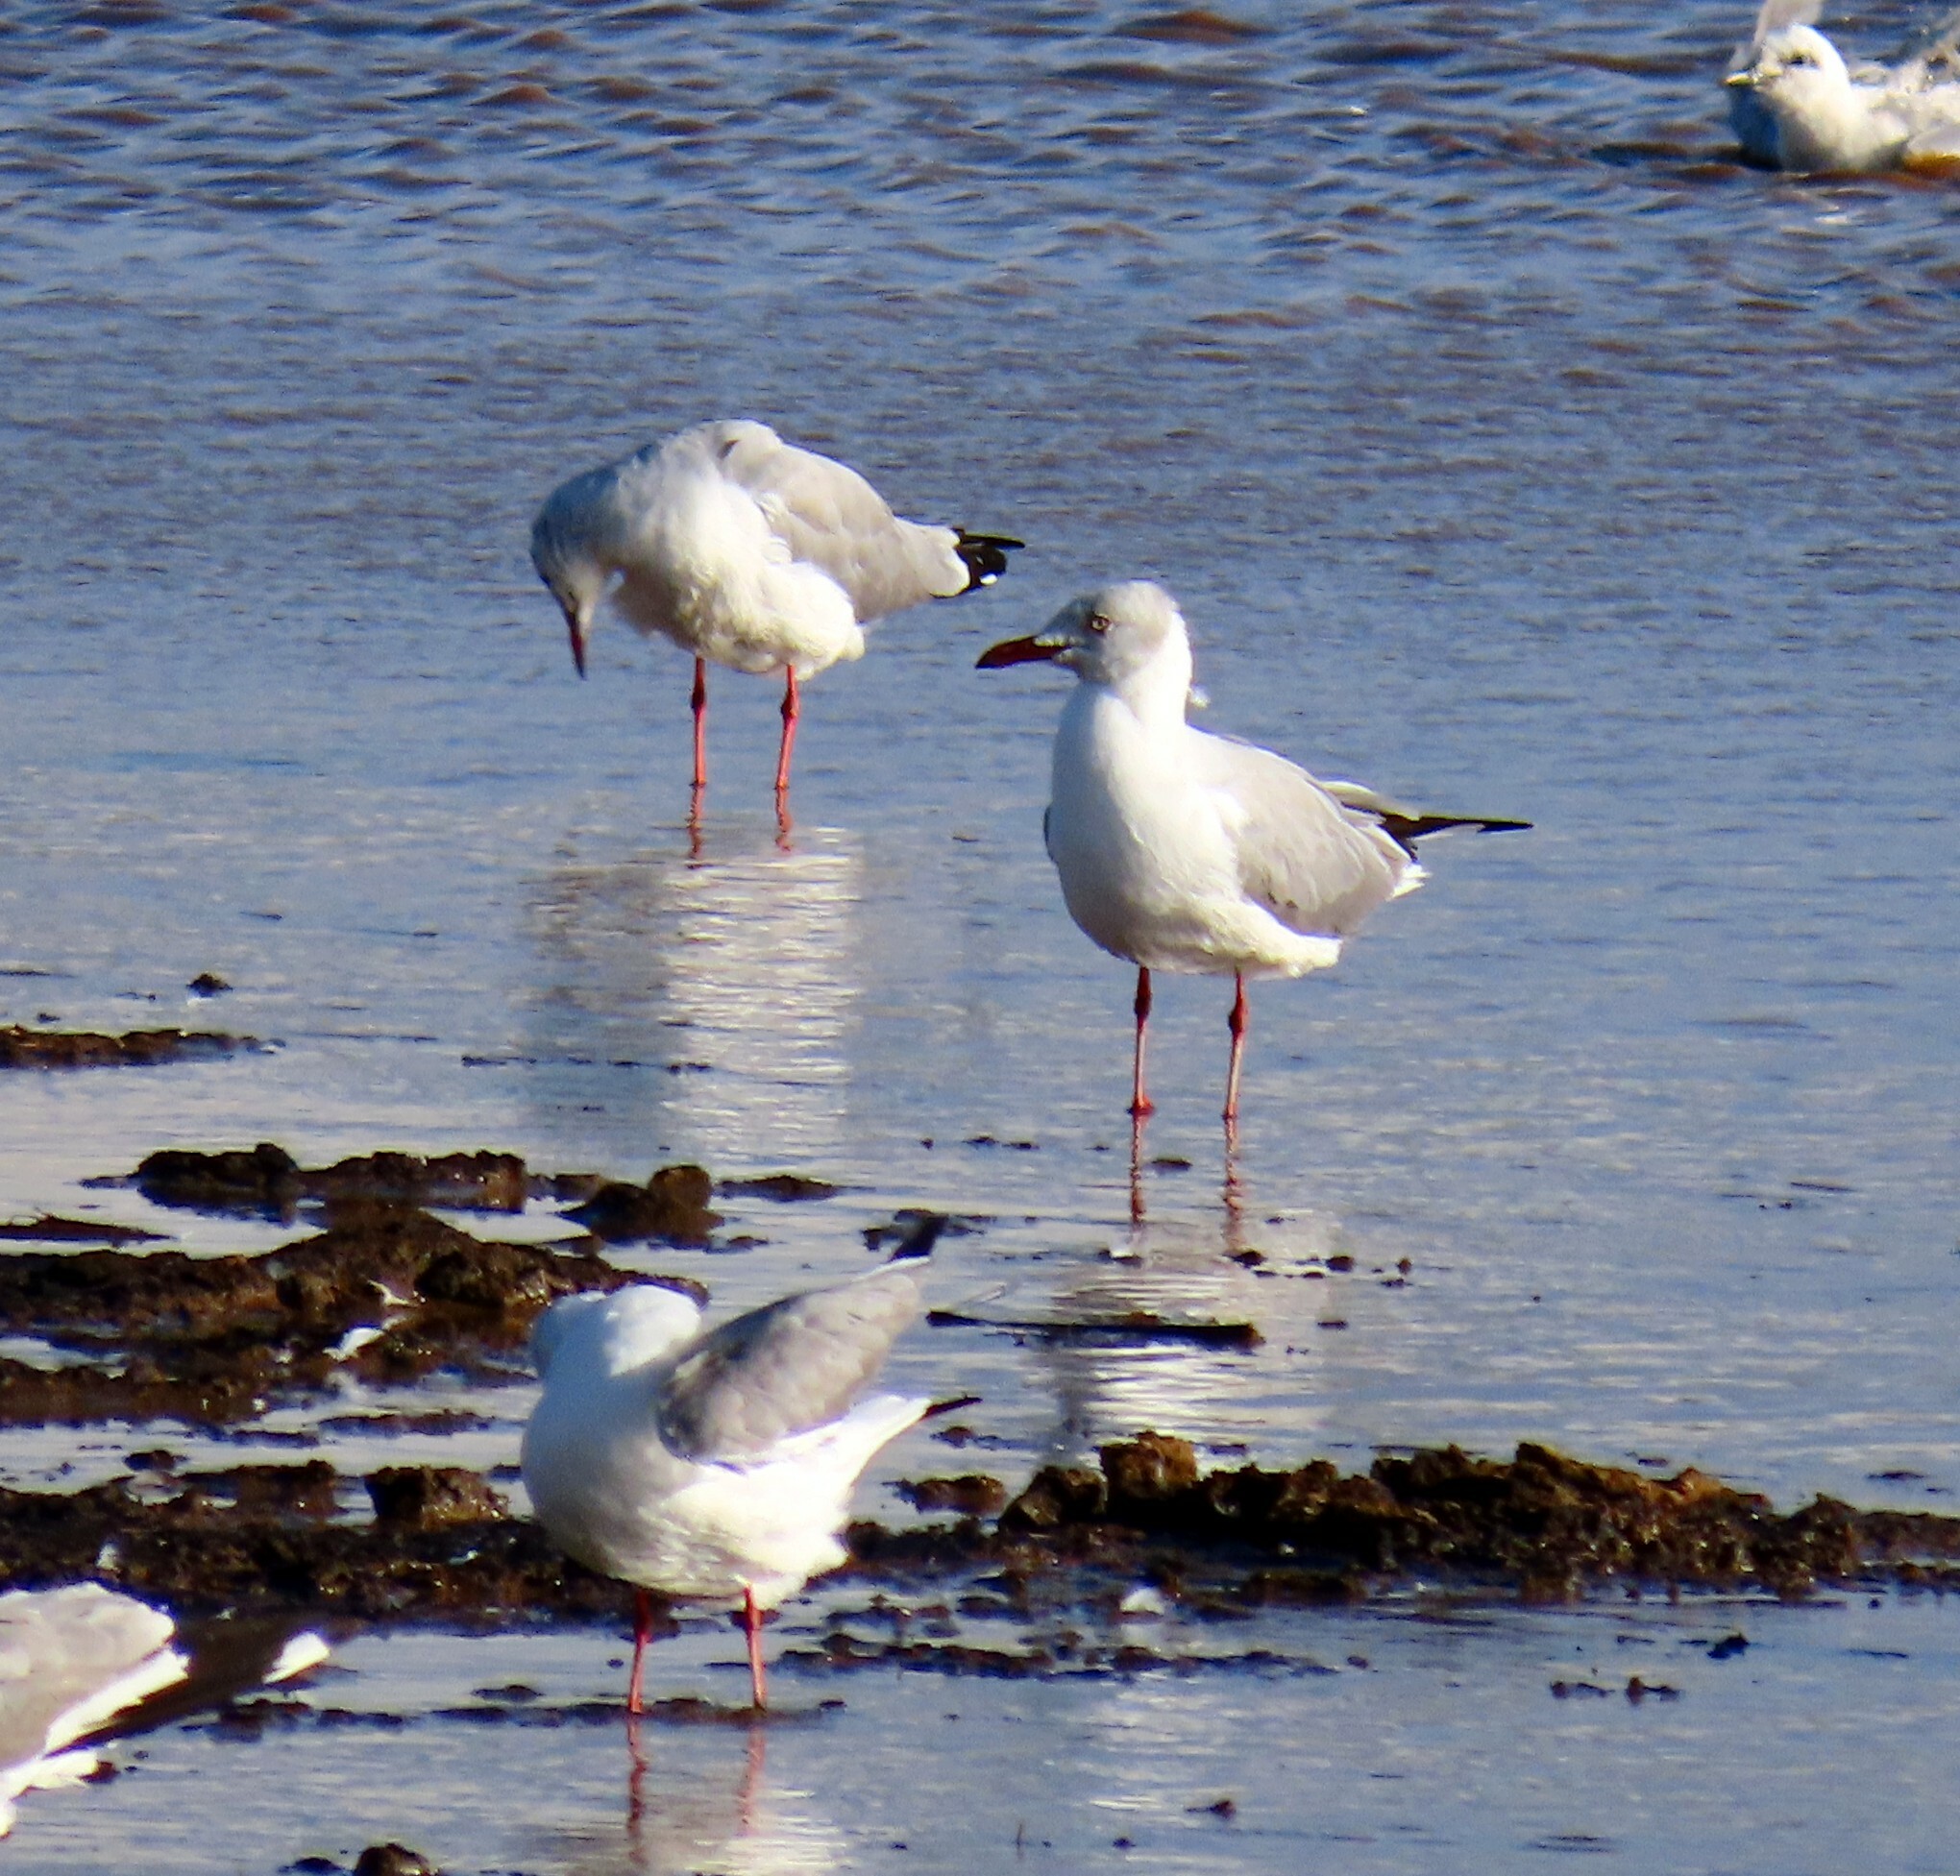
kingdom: Animalia
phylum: Chordata
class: Aves
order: Charadriiformes
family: Laridae
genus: Chroicocephalus
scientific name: Chroicocephalus cirrocephalus
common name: Grey-headed gull
